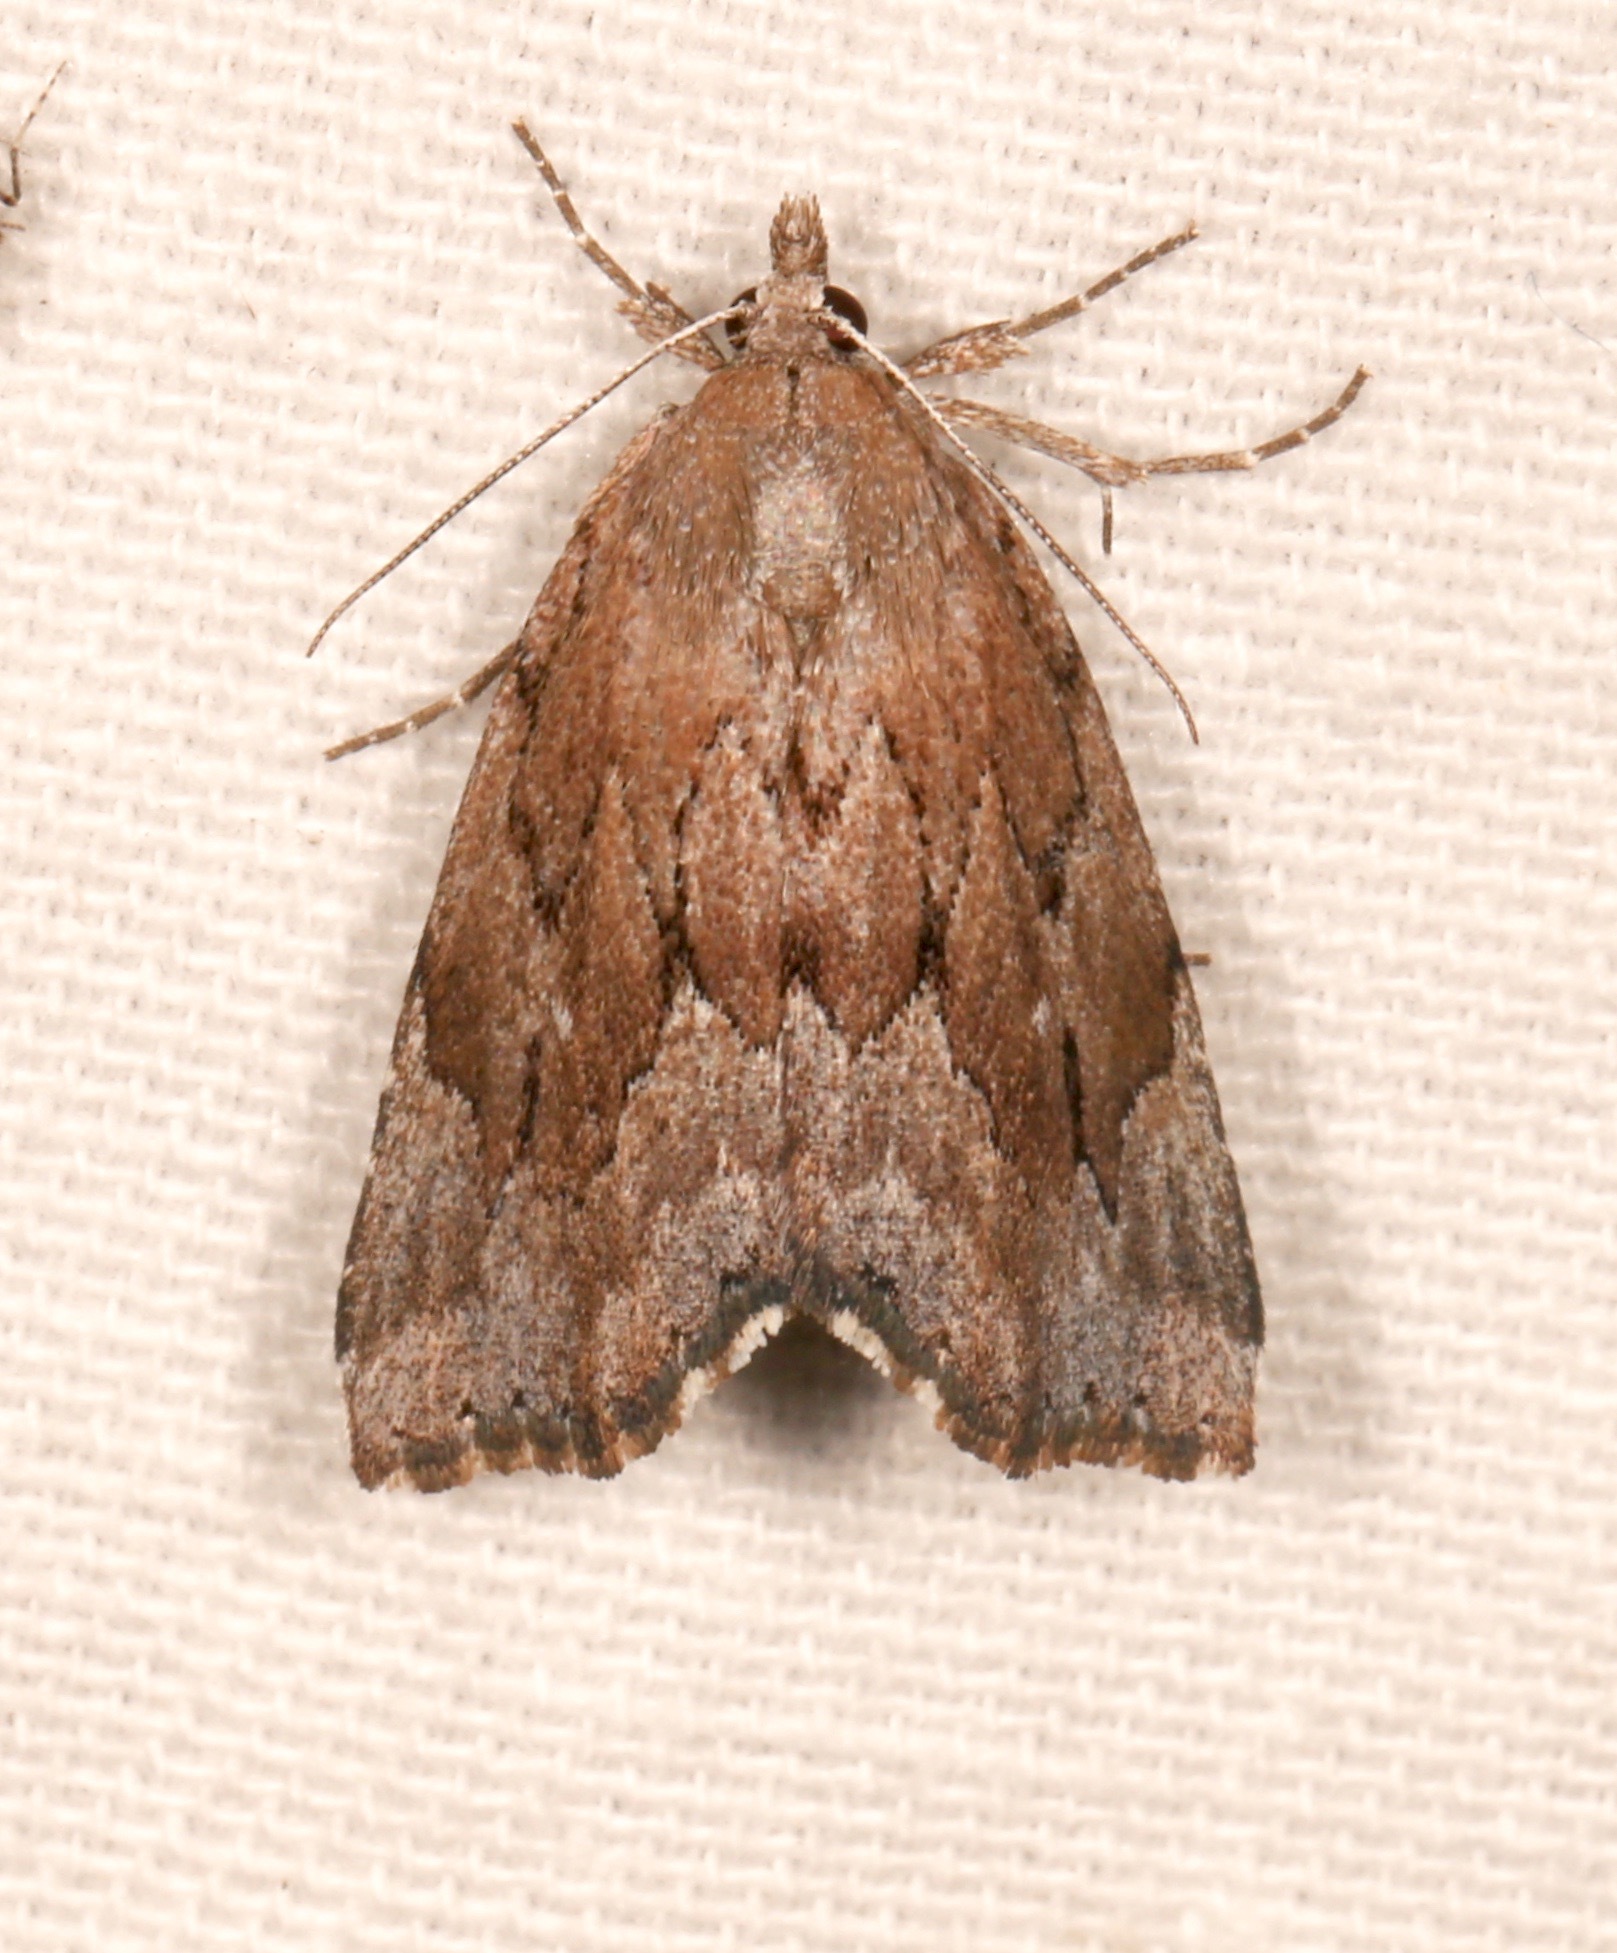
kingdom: Animalia
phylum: Arthropoda
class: Insecta
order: Lepidoptera
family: Erebidae
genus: Cutina
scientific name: Cutina albopunctella
